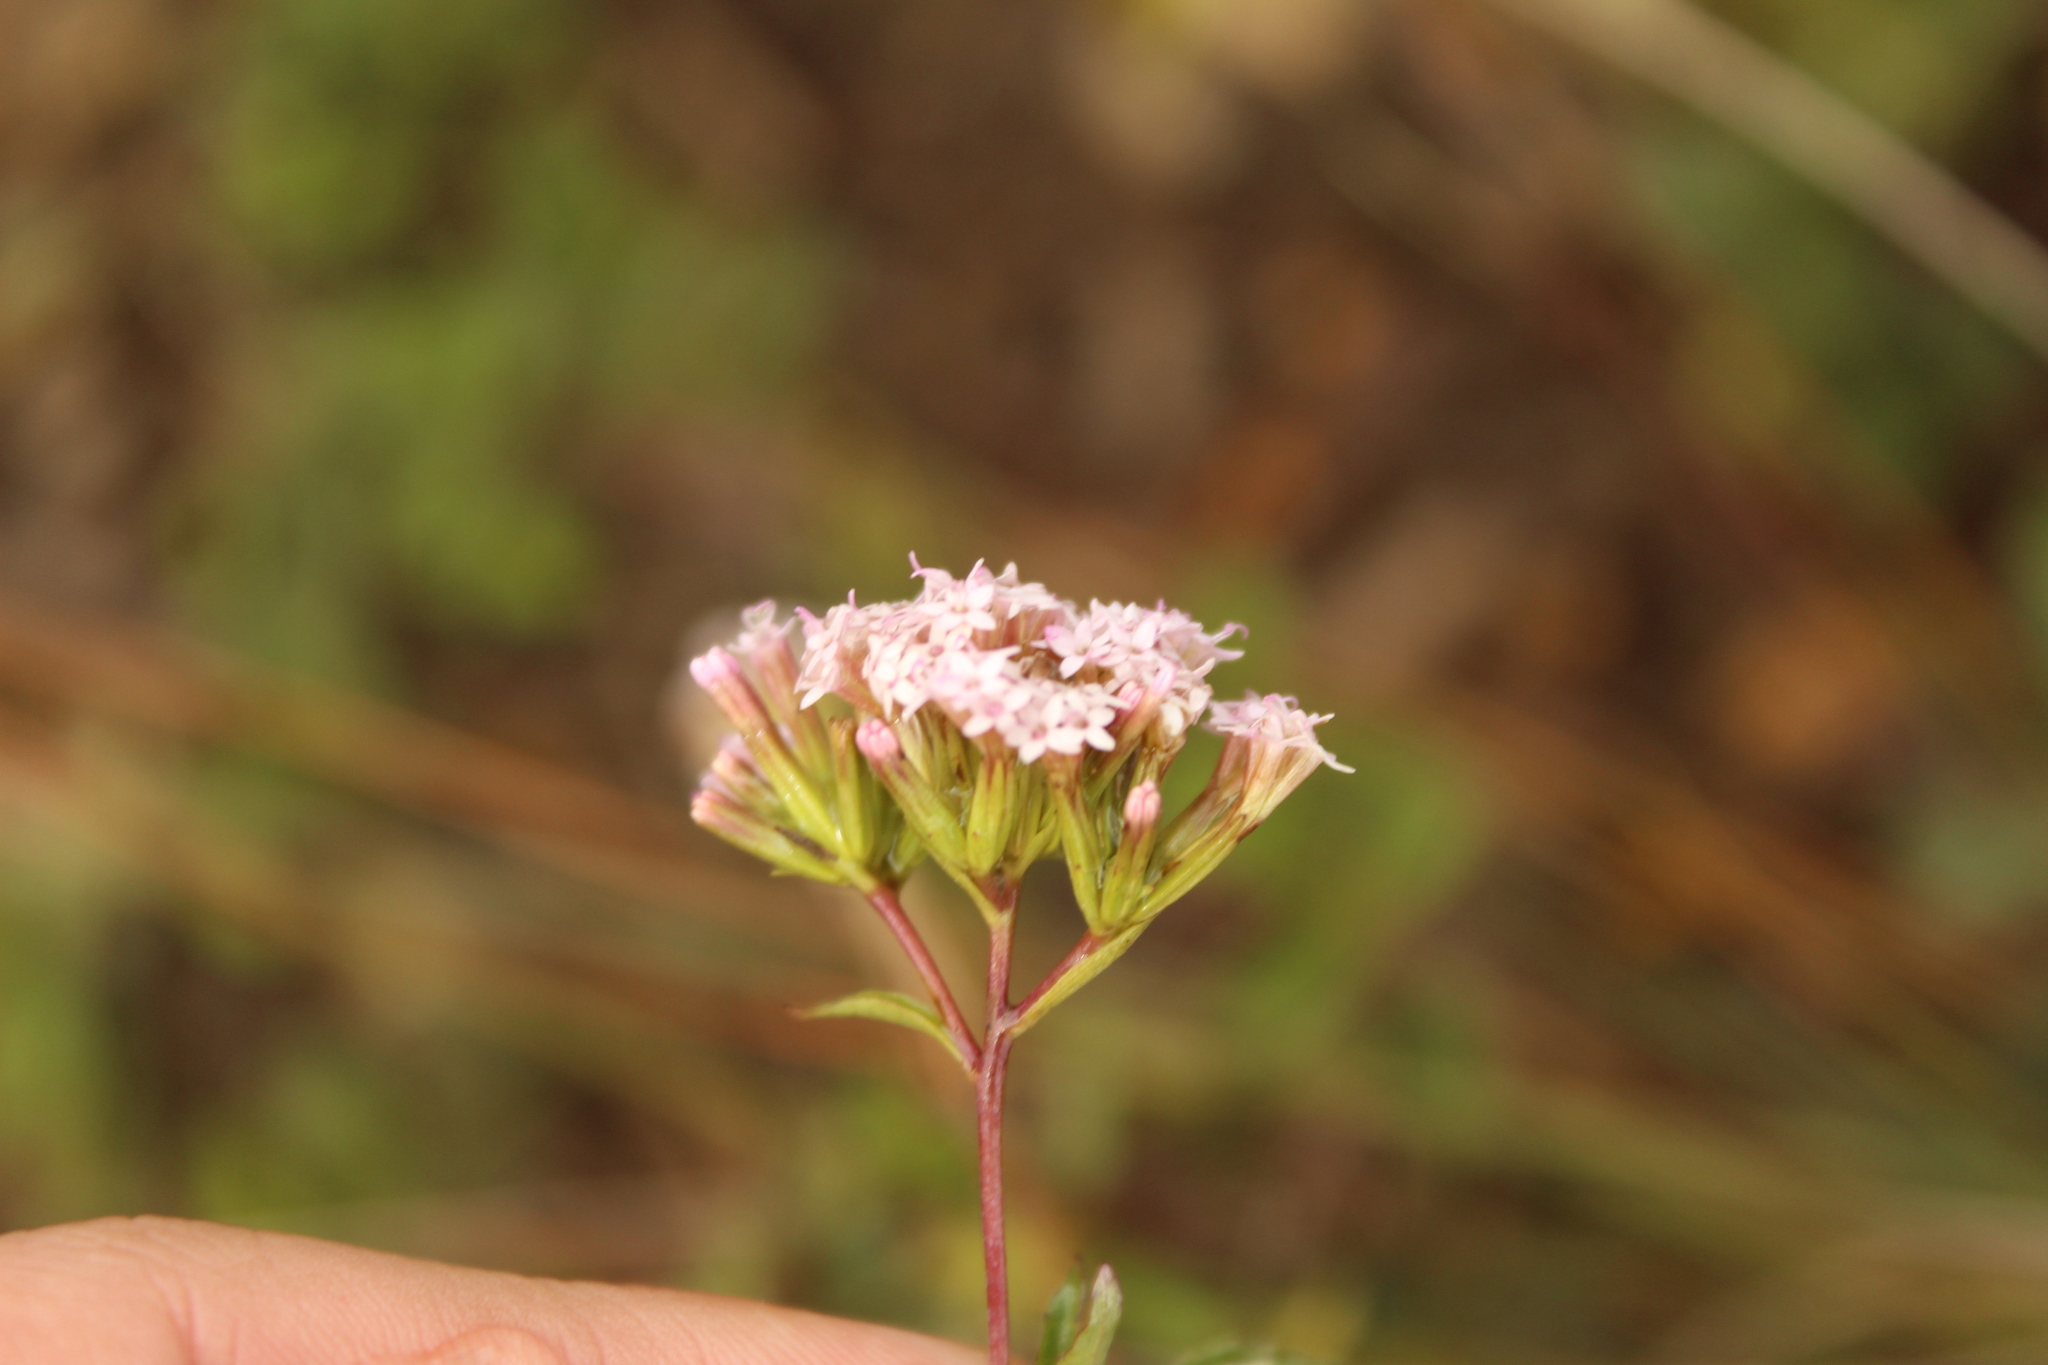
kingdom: Plantae
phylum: Tracheophyta
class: Magnoliopsida
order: Asterales
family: Asteraceae
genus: Stevia
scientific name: Stevia lucida
